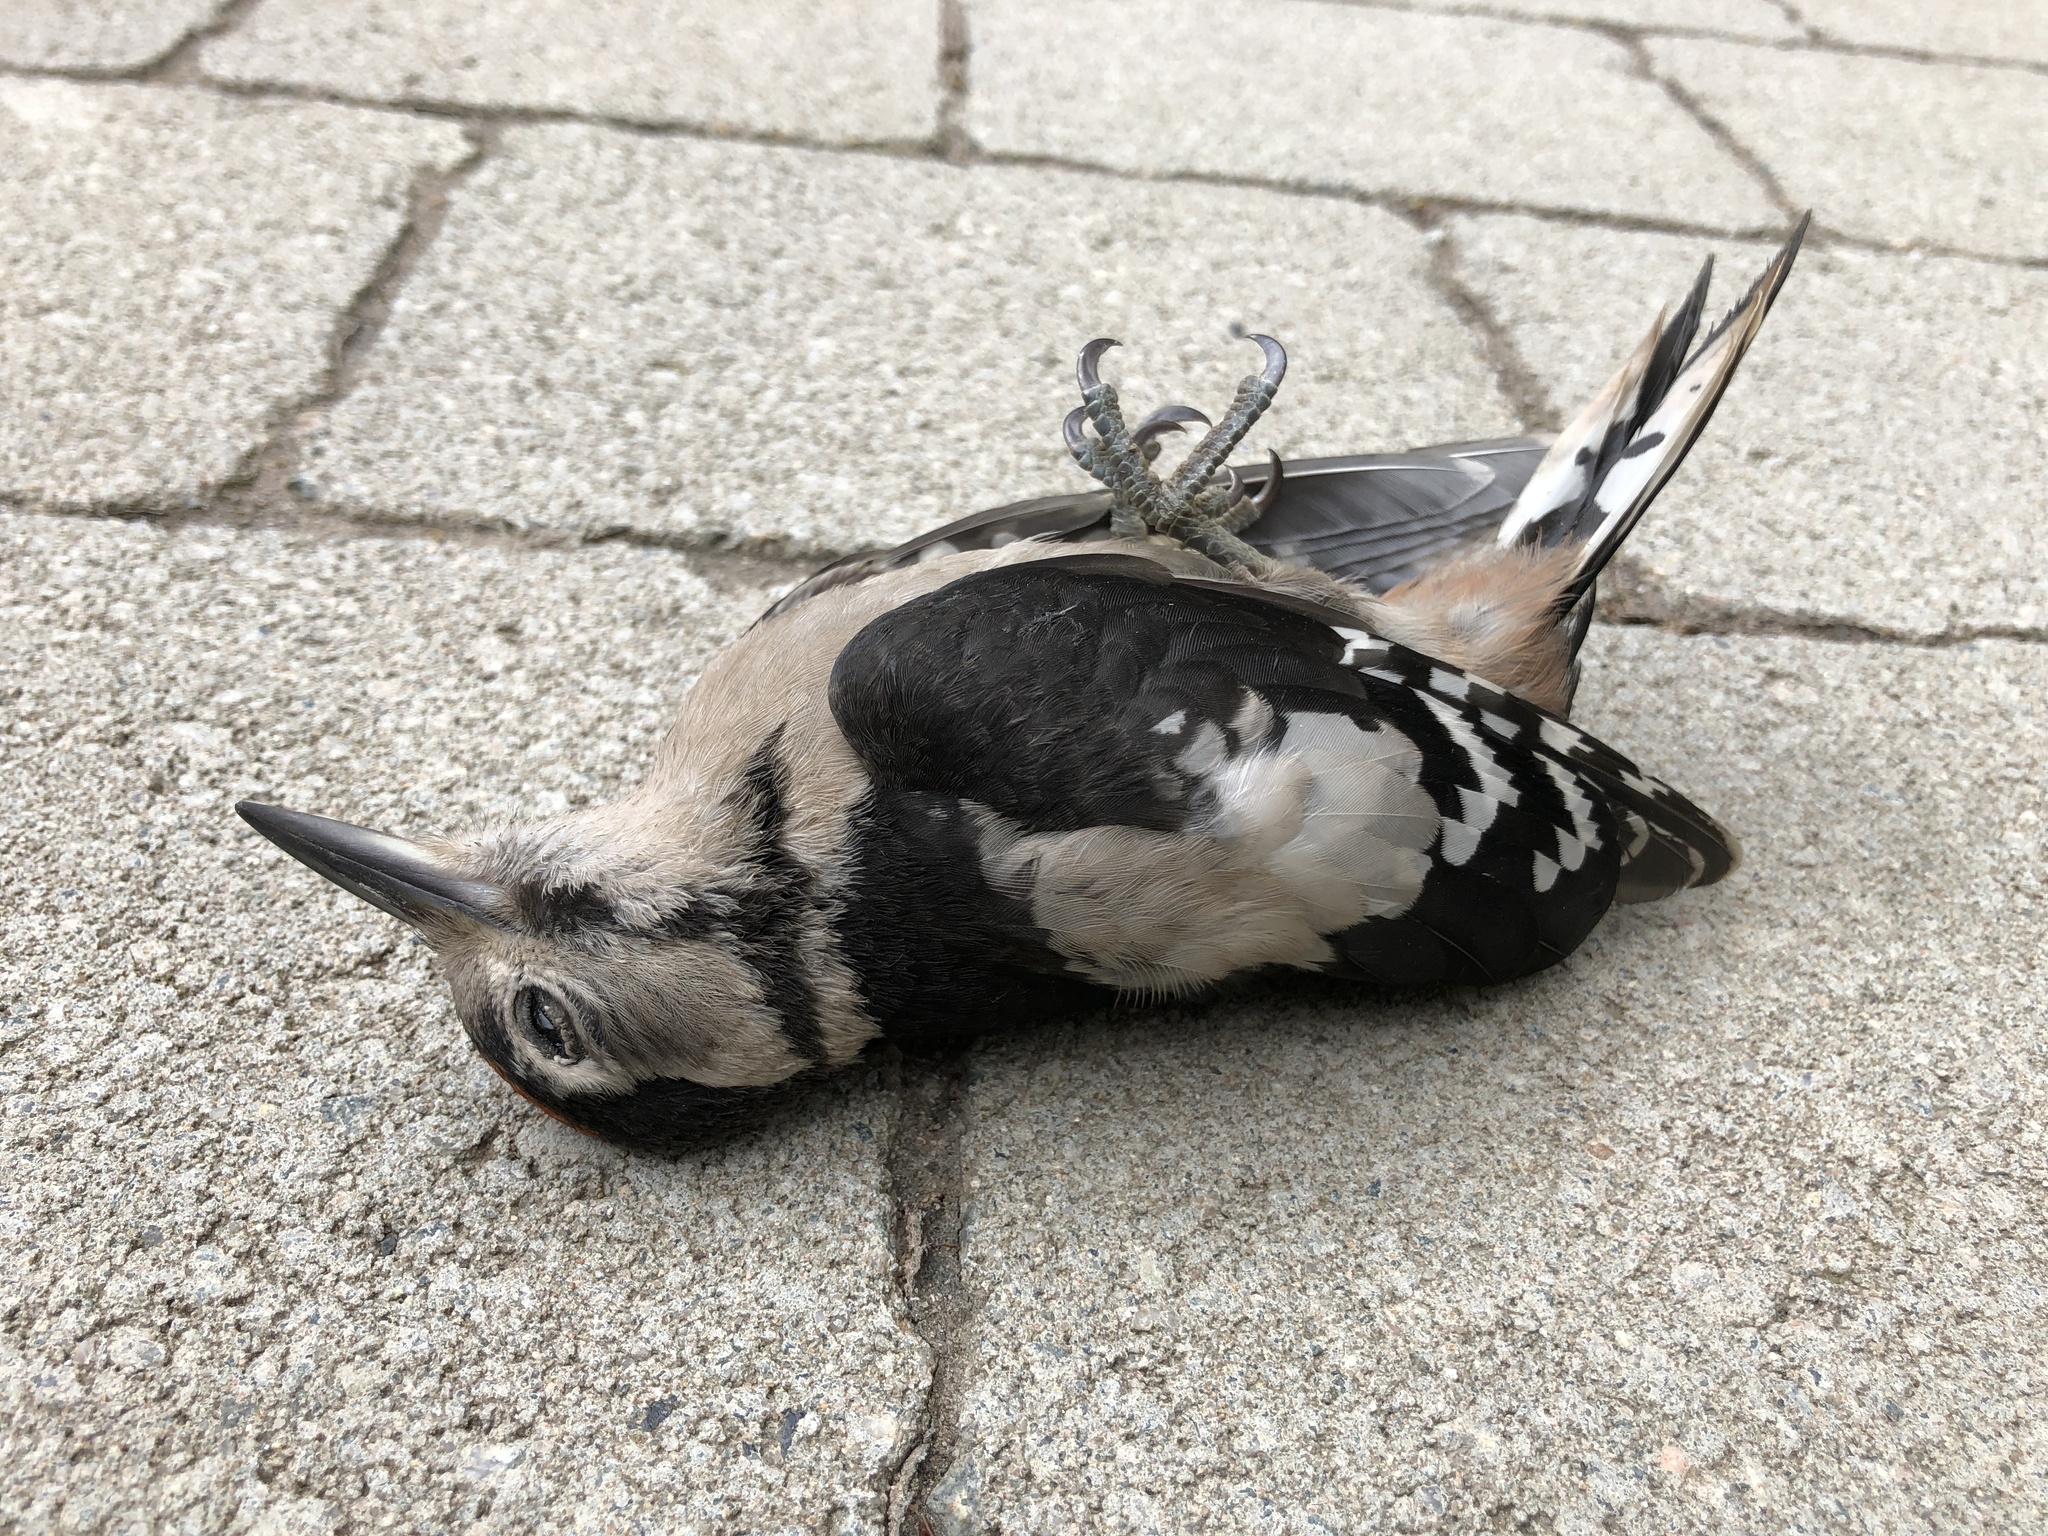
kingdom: Animalia
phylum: Chordata
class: Aves
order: Piciformes
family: Picidae
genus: Dendrocopos
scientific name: Dendrocopos major
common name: Great spotted woodpecker
